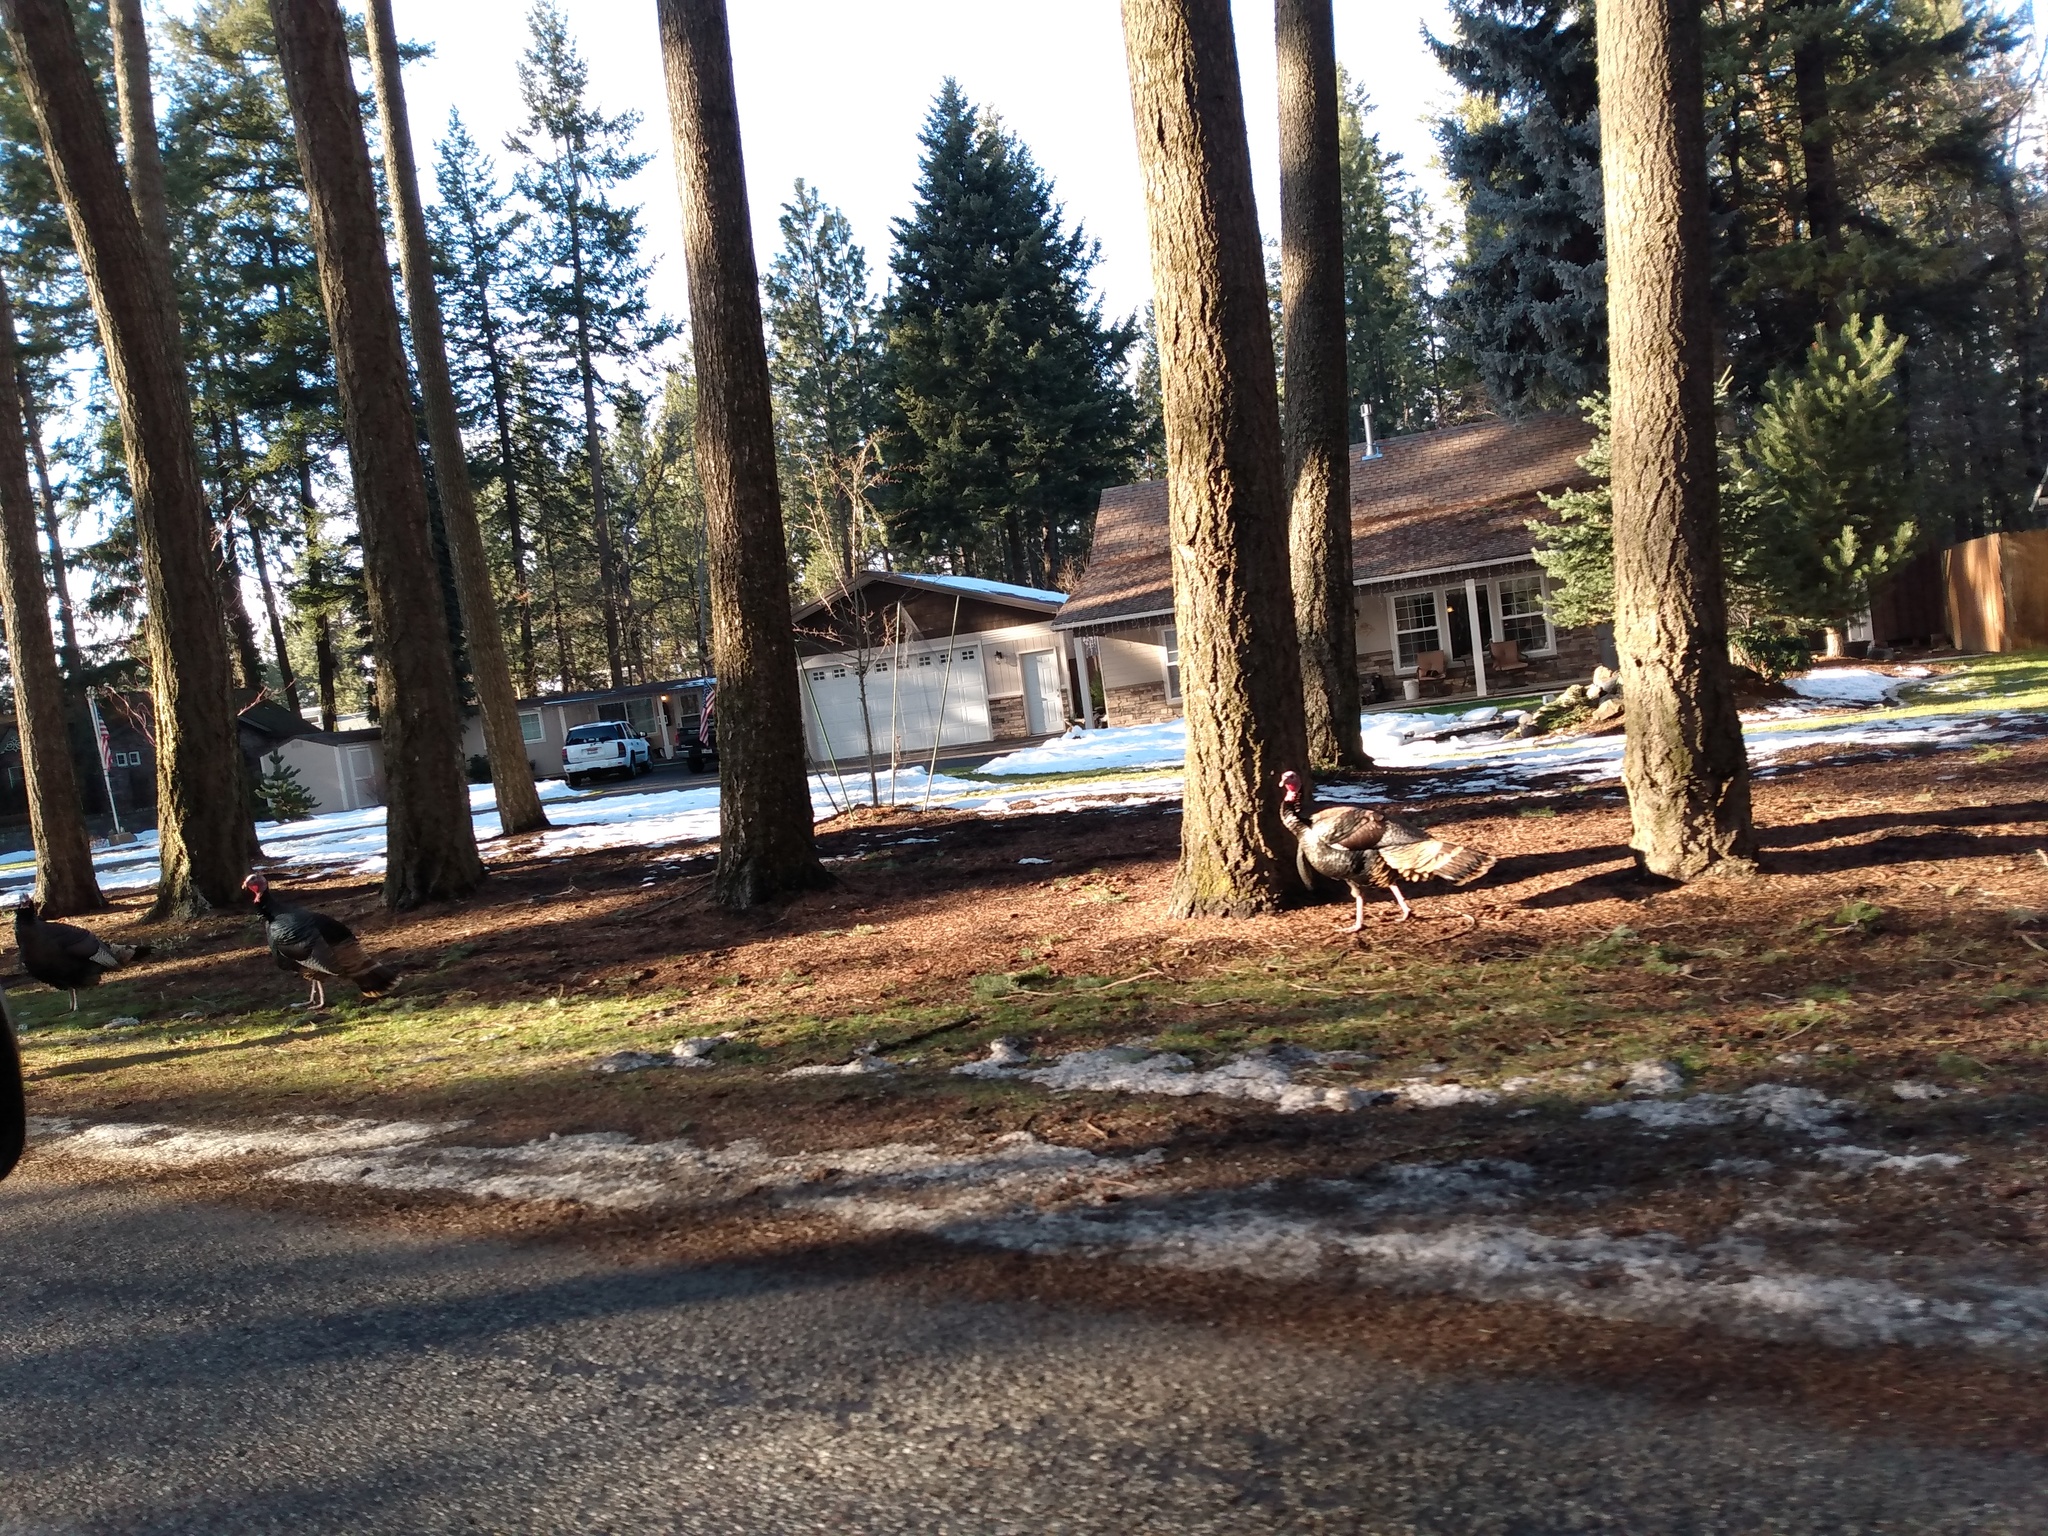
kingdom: Animalia
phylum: Chordata
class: Aves
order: Galliformes
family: Phasianidae
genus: Meleagris
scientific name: Meleagris gallopavo
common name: Wild turkey
